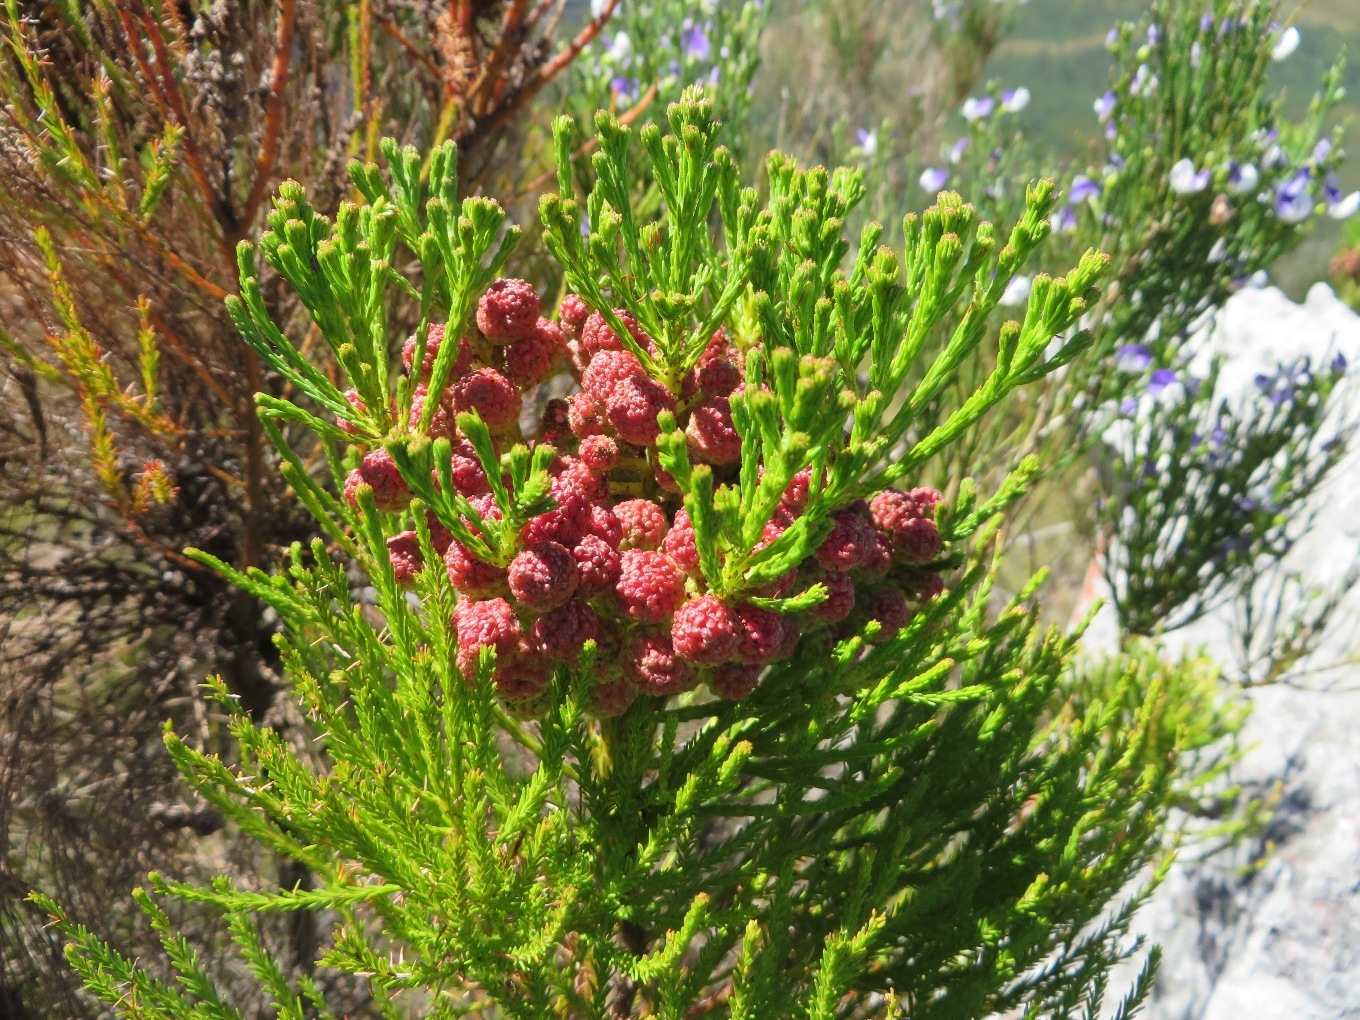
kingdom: Plantae
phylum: Tracheophyta
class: Magnoliopsida
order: Bruniales
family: Bruniaceae
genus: Berzelia
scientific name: Berzelia lanuginosa
